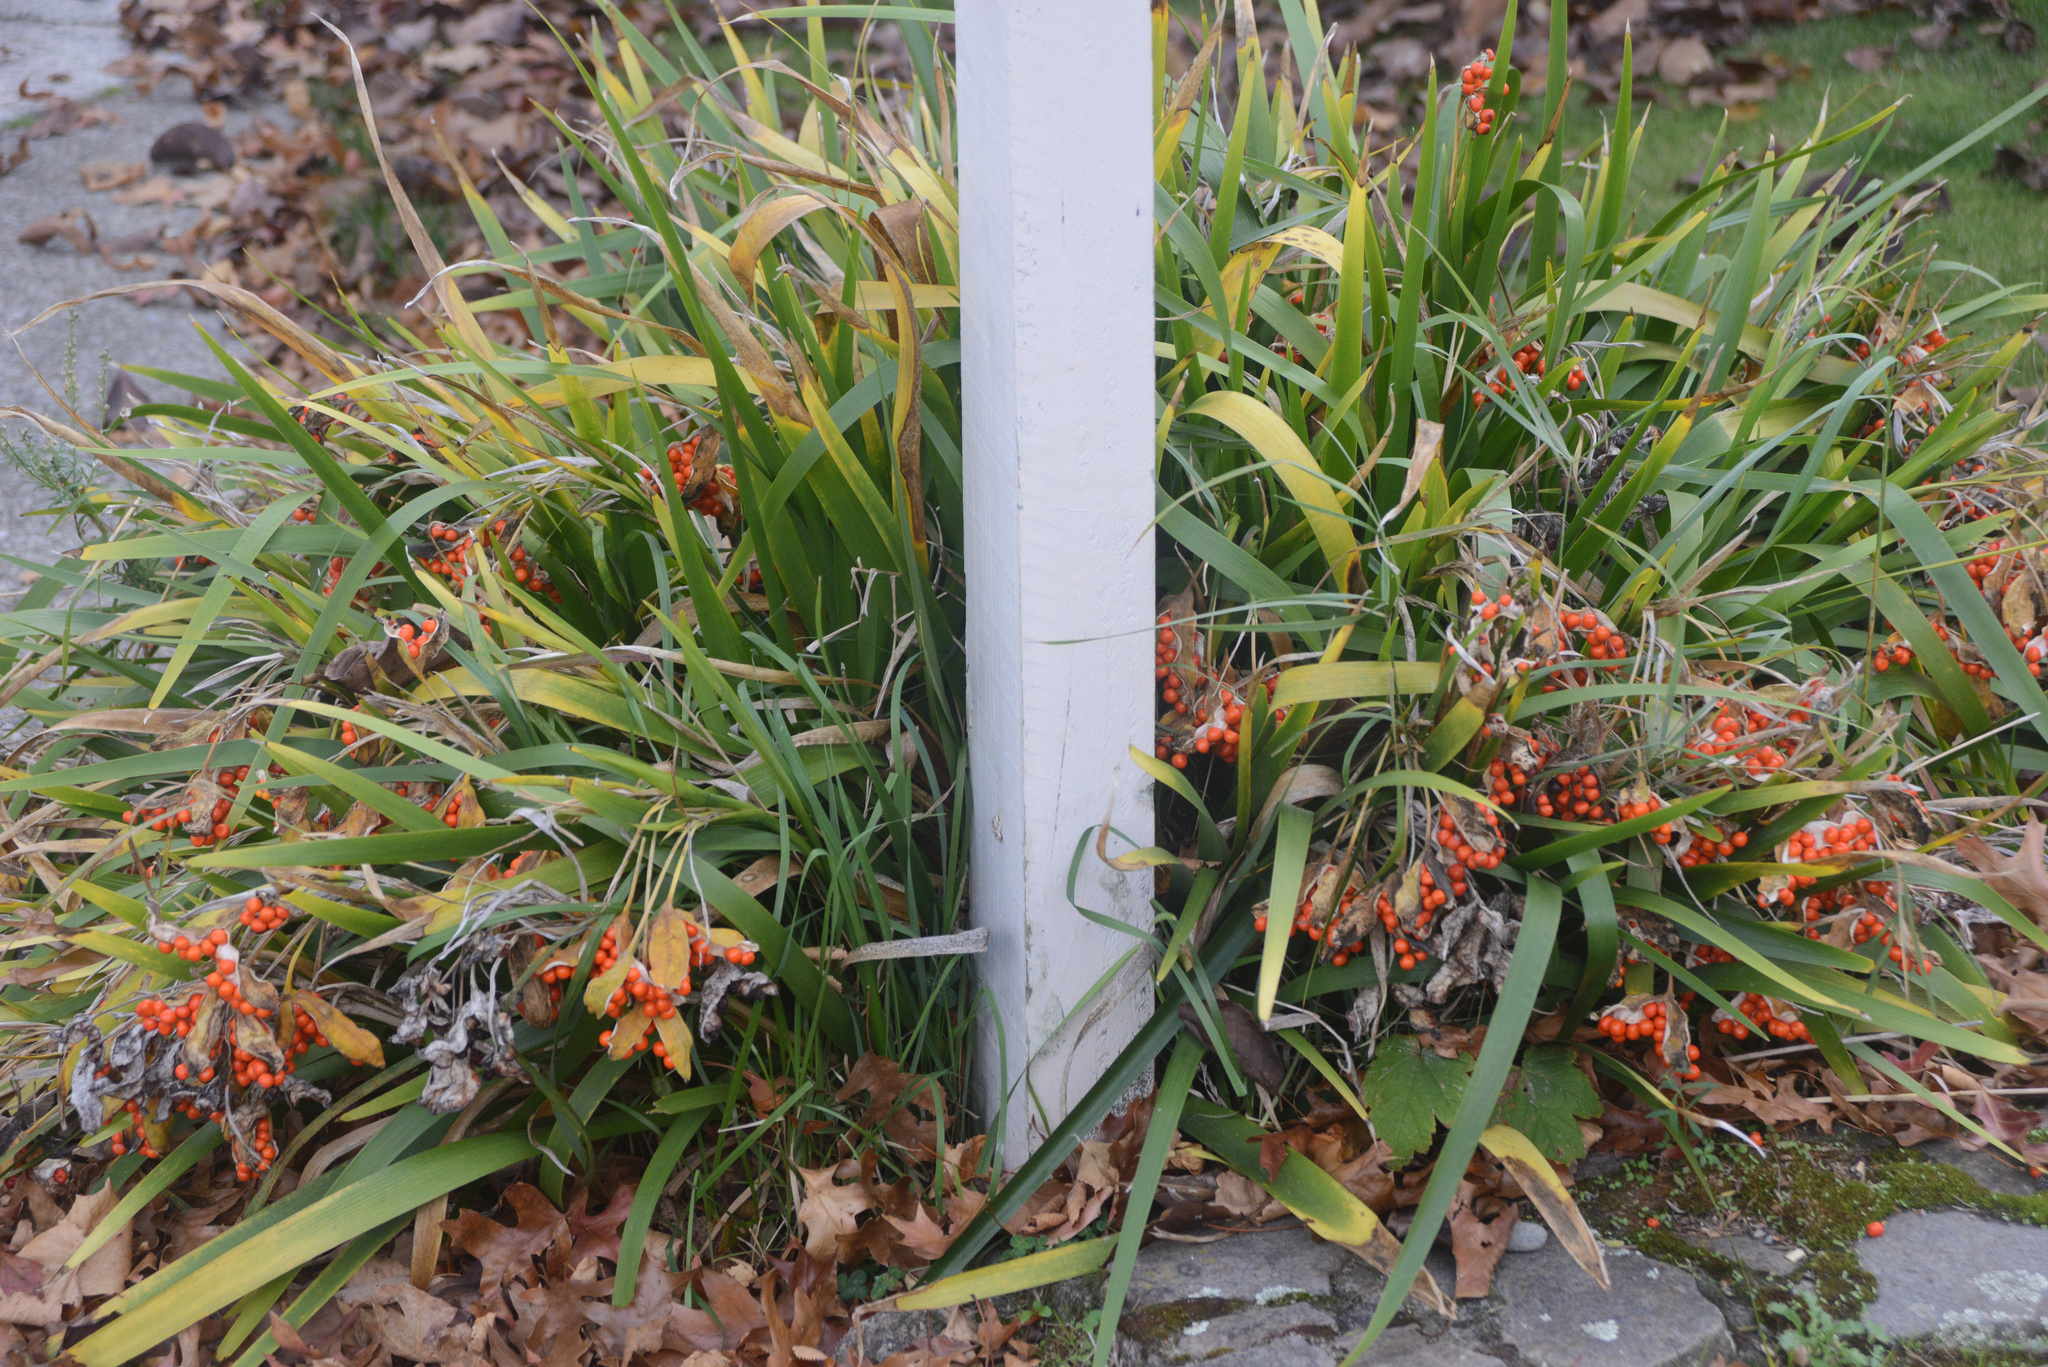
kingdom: Plantae
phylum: Tracheophyta
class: Liliopsida
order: Asparagales
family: Iridaceae
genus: Iris
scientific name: Iris foetidissima
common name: Stinking iris
